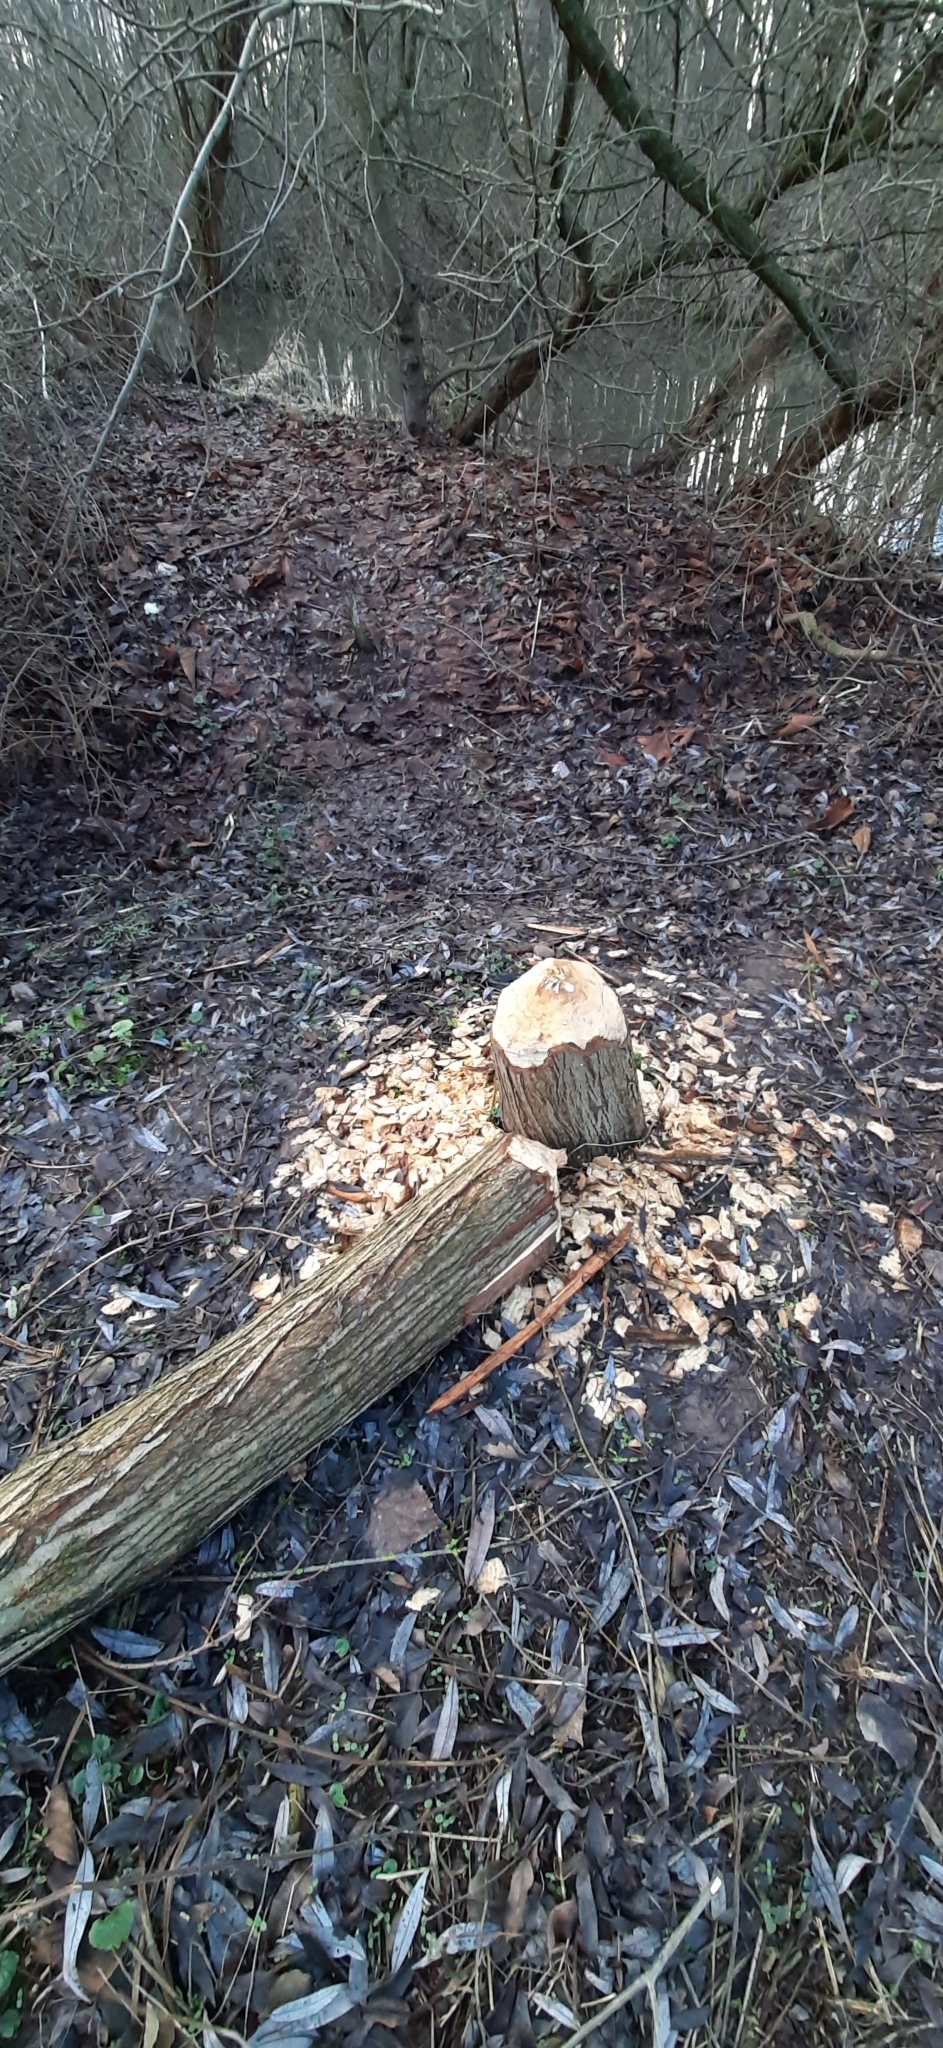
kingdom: Animalia
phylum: Chordata
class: Mammalia
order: Rodentia
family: Castoridae
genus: Castor
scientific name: Castor fiber
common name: Eurasian beaver
